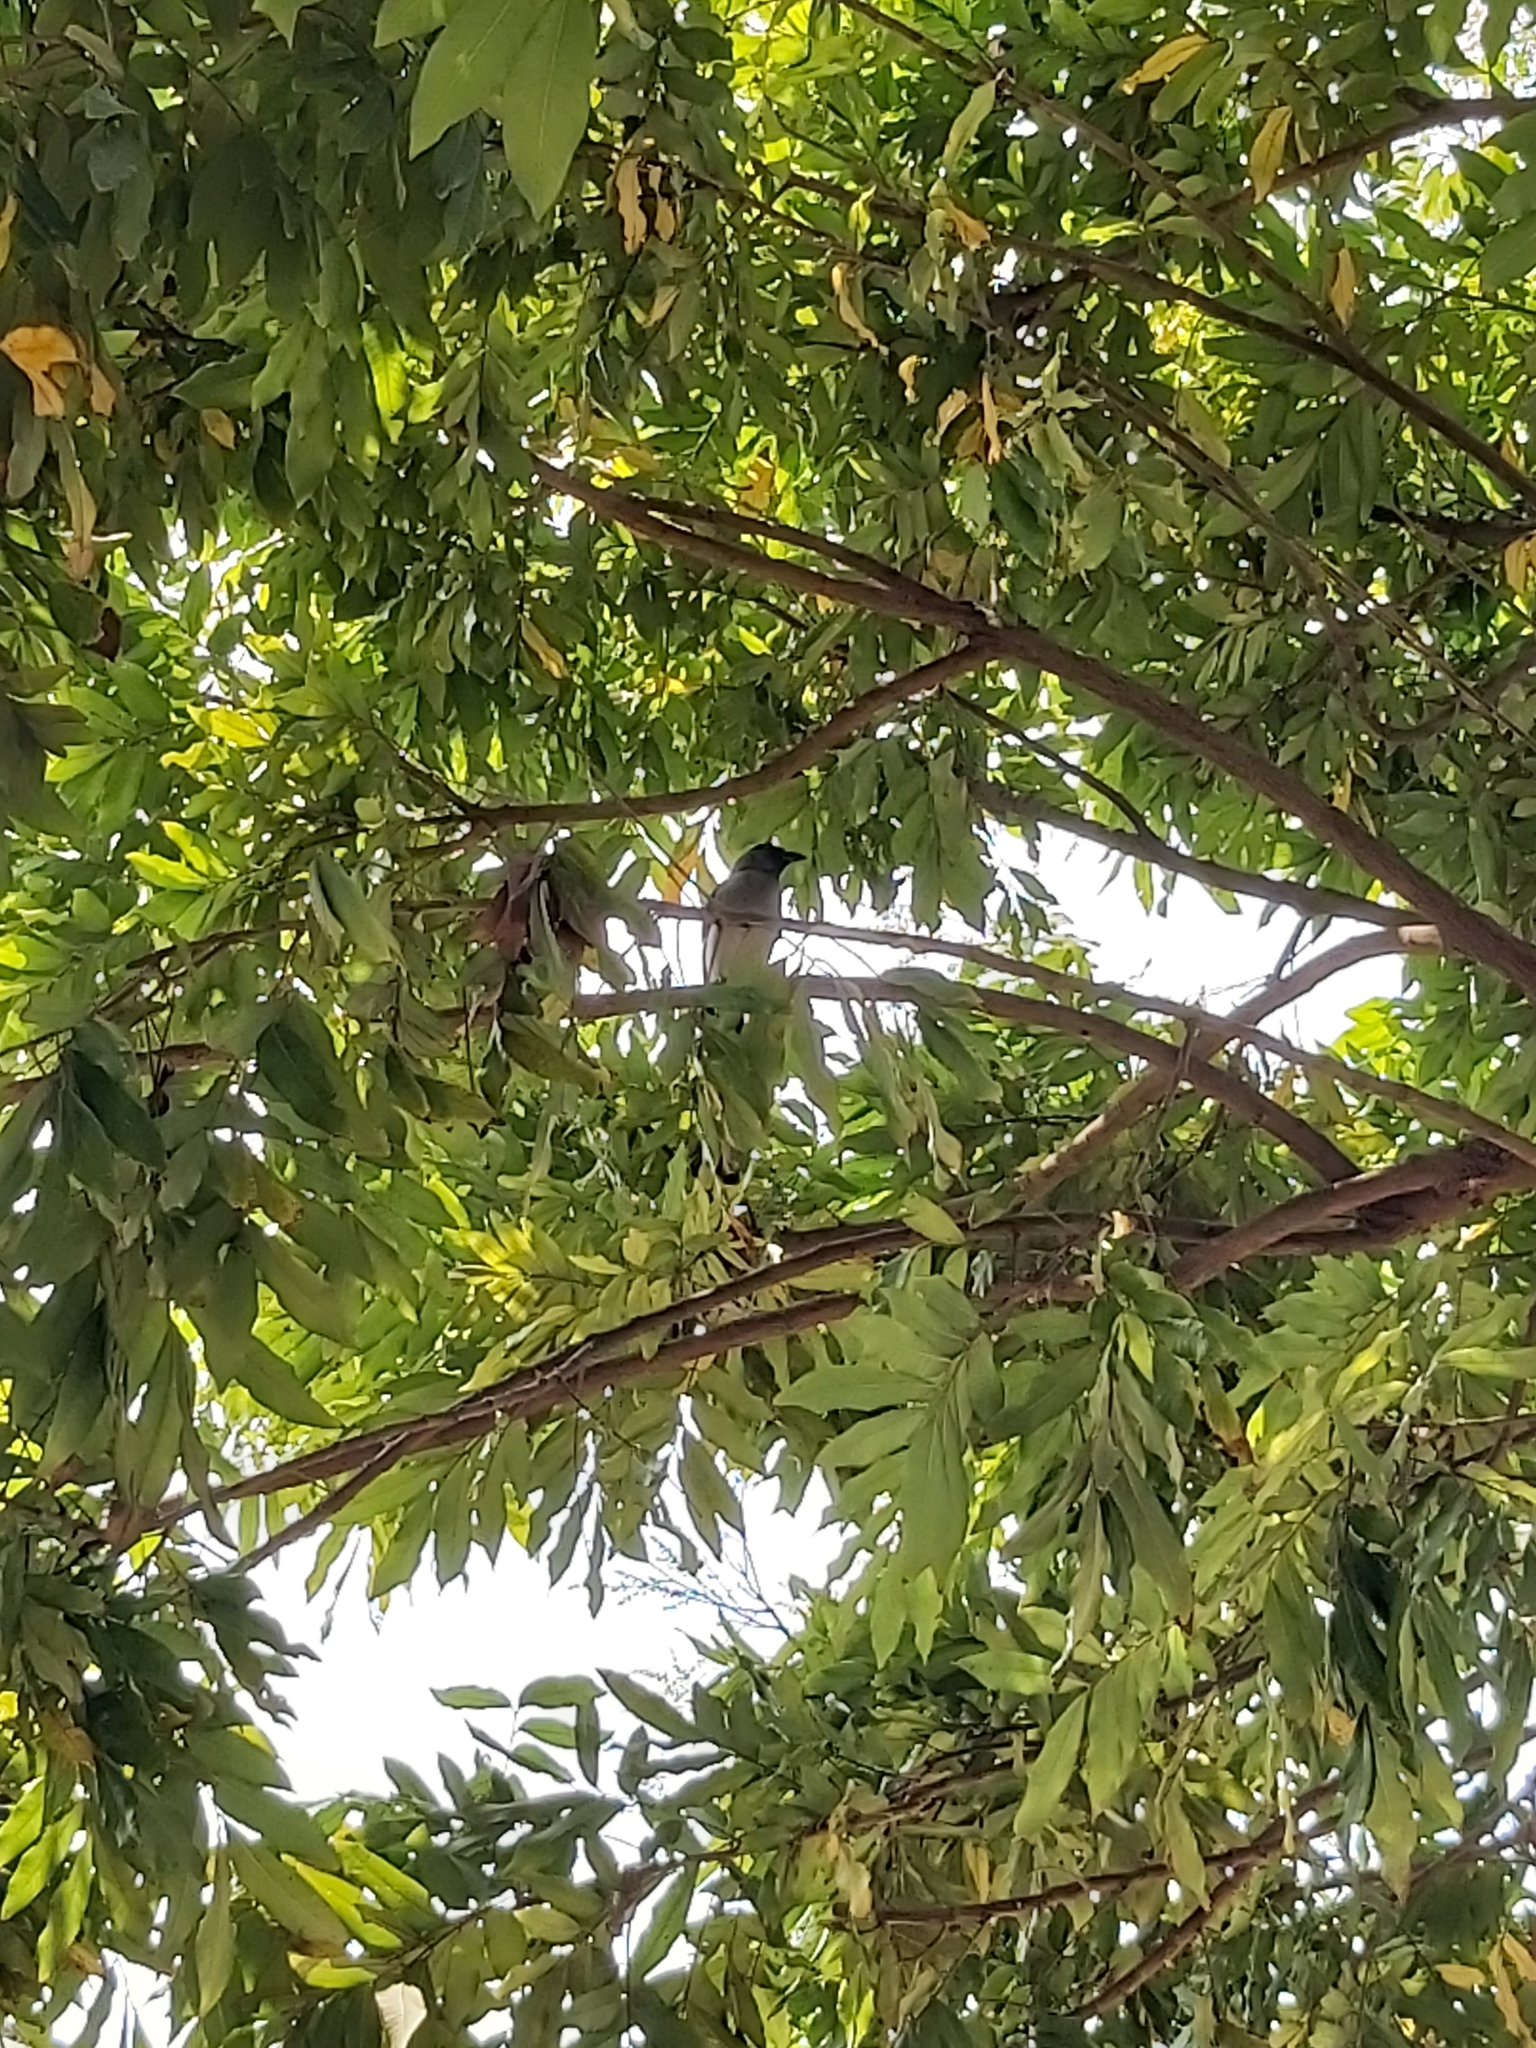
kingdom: Animalia
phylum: Chordata
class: Aves
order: Passeriformes
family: Corvidae
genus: Dendrocitta
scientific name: Dendrocitta formosae
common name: Grey treepie
